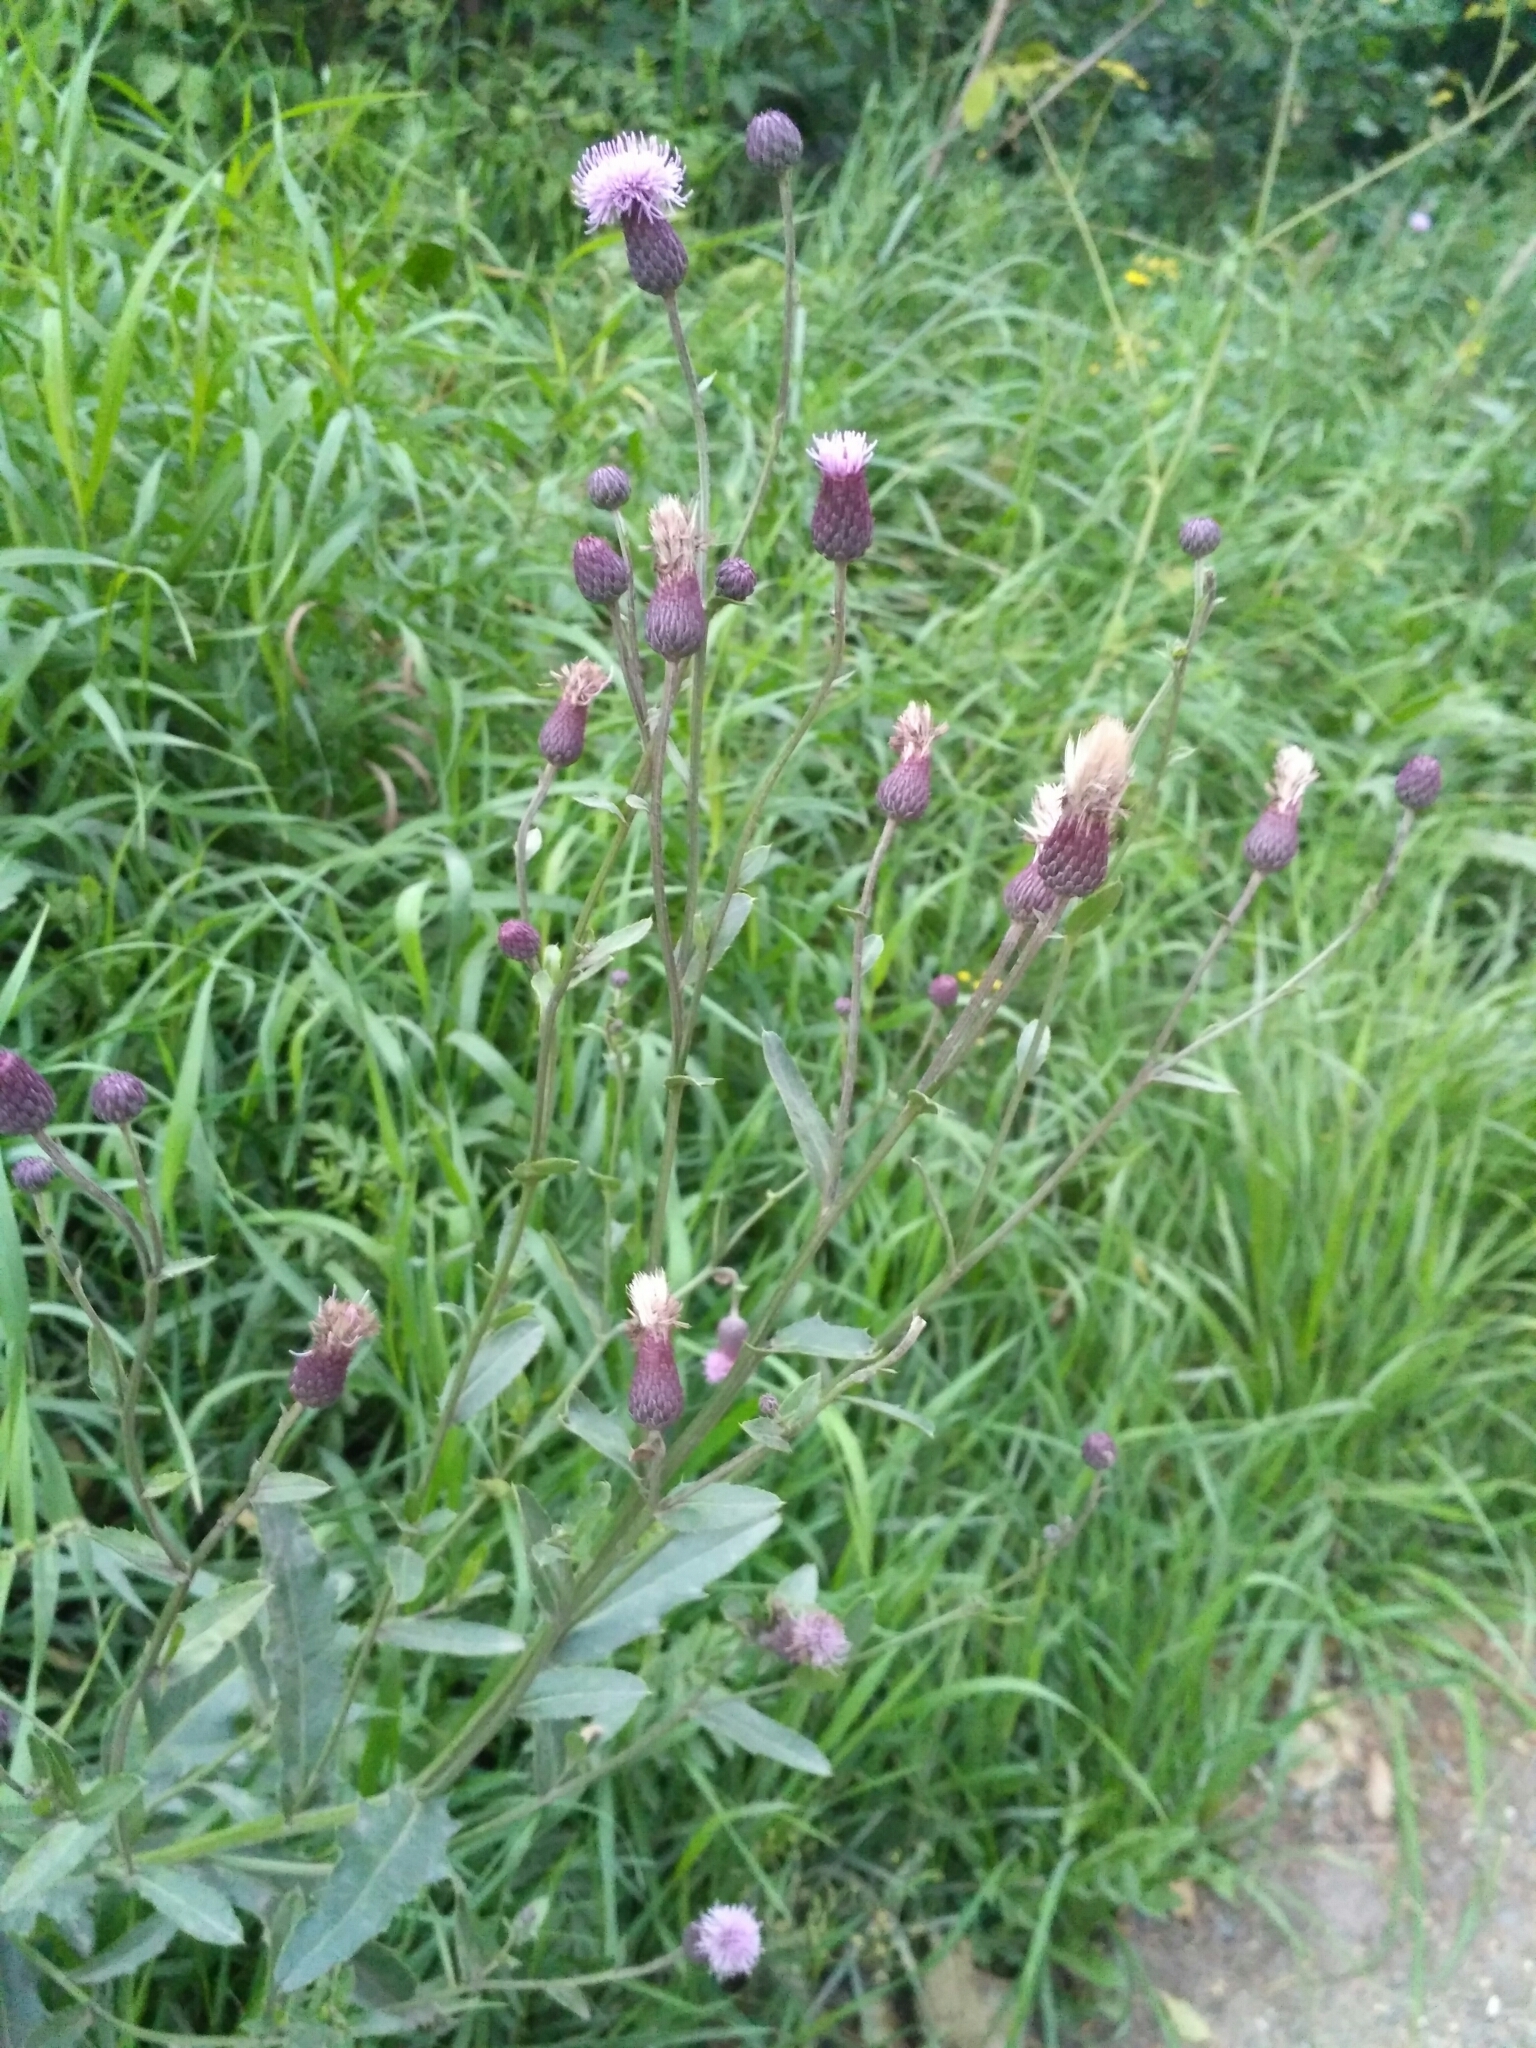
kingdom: Plantae
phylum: Tracheophyta
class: Magnoliopsida
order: Asterales
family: Asteraceae
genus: Cirsium
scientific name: Cirsium arvense
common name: Creeping thistle
